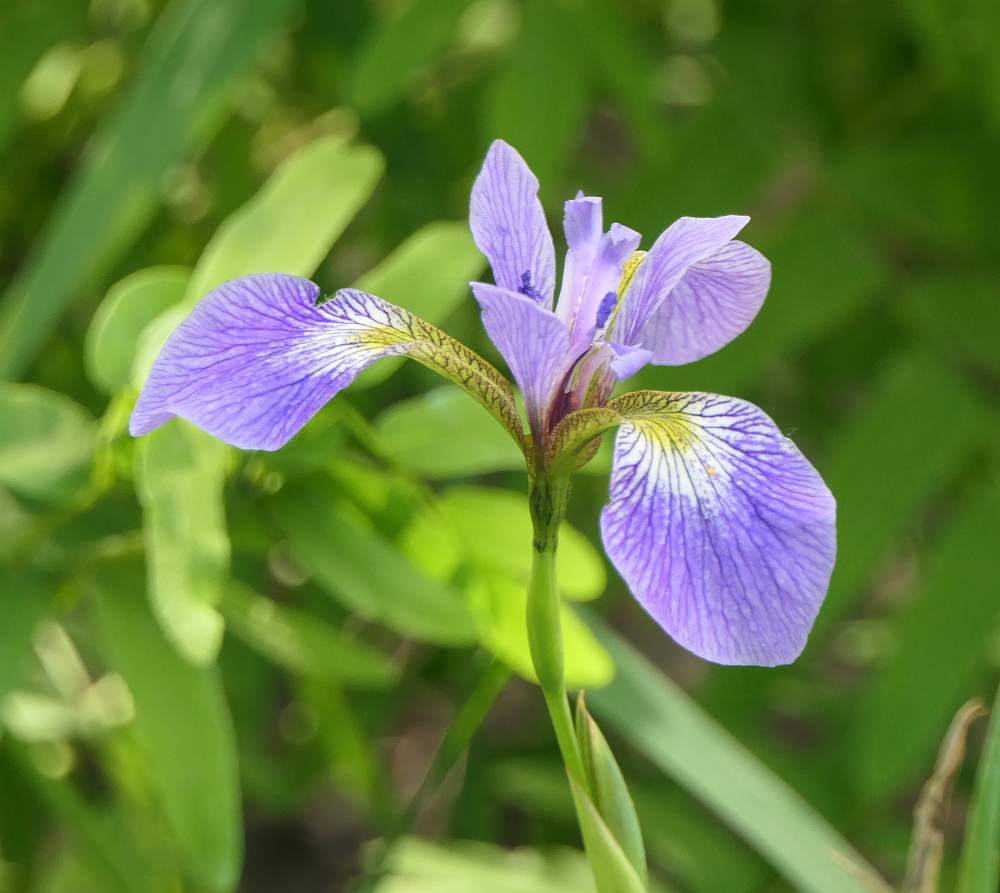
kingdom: Plantae
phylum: Tracheophyta
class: Liliopsida
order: Asparagales
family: Iridaceae
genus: Iris
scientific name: Iris versicolor
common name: Purple iris
